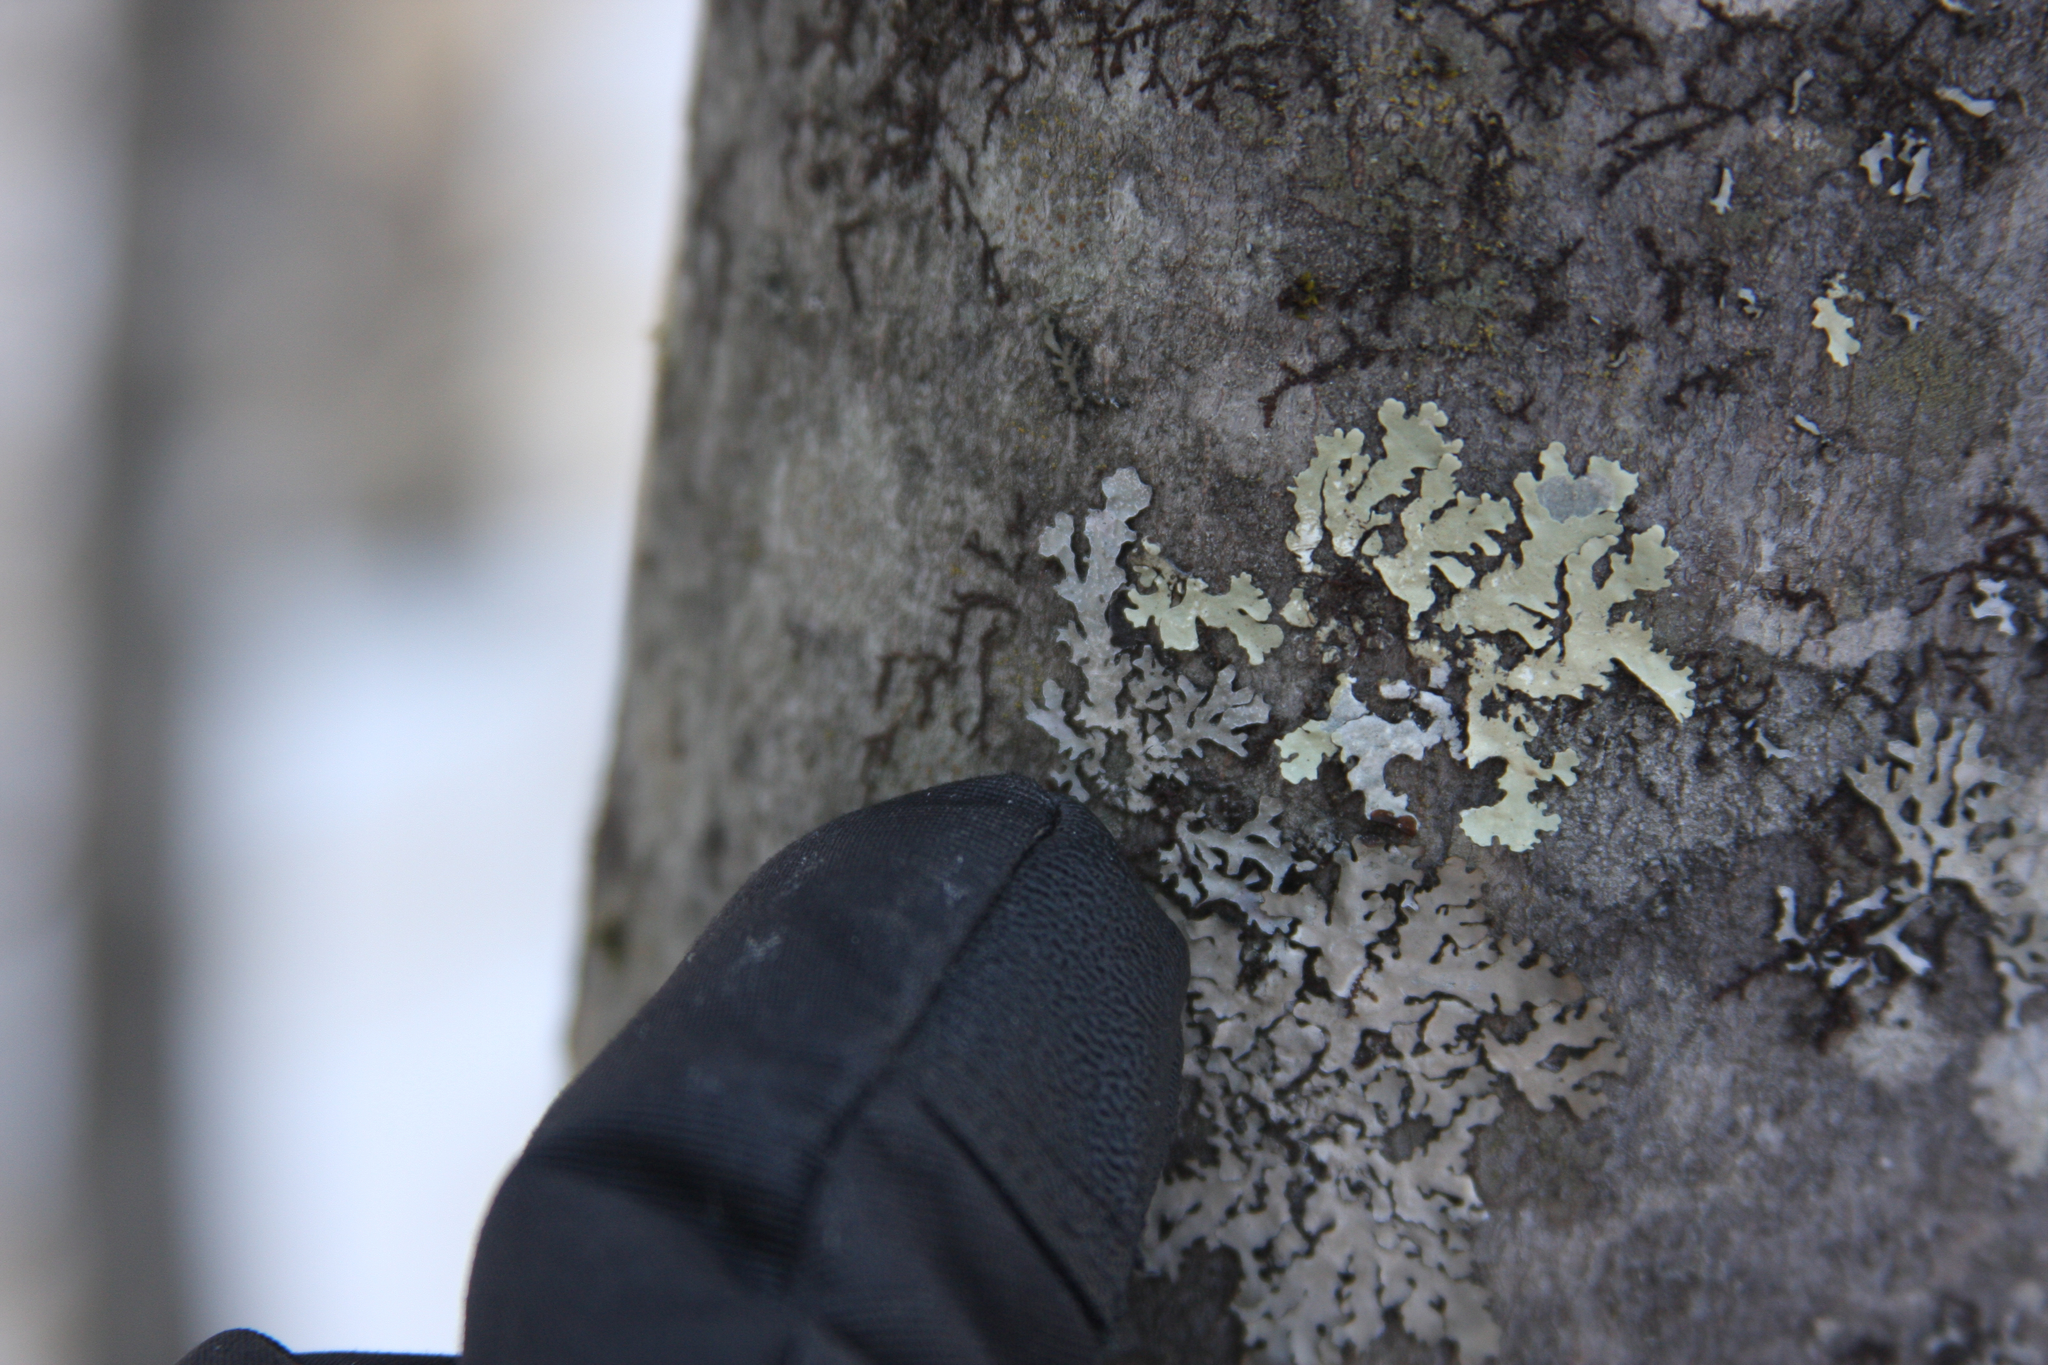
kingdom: Fungi
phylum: Ascomycota
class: Lecanoromycetes
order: Lecanorales
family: Parmeliaceae
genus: Parmelia
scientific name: Parmelia sulcata
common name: Netted shield lichen
